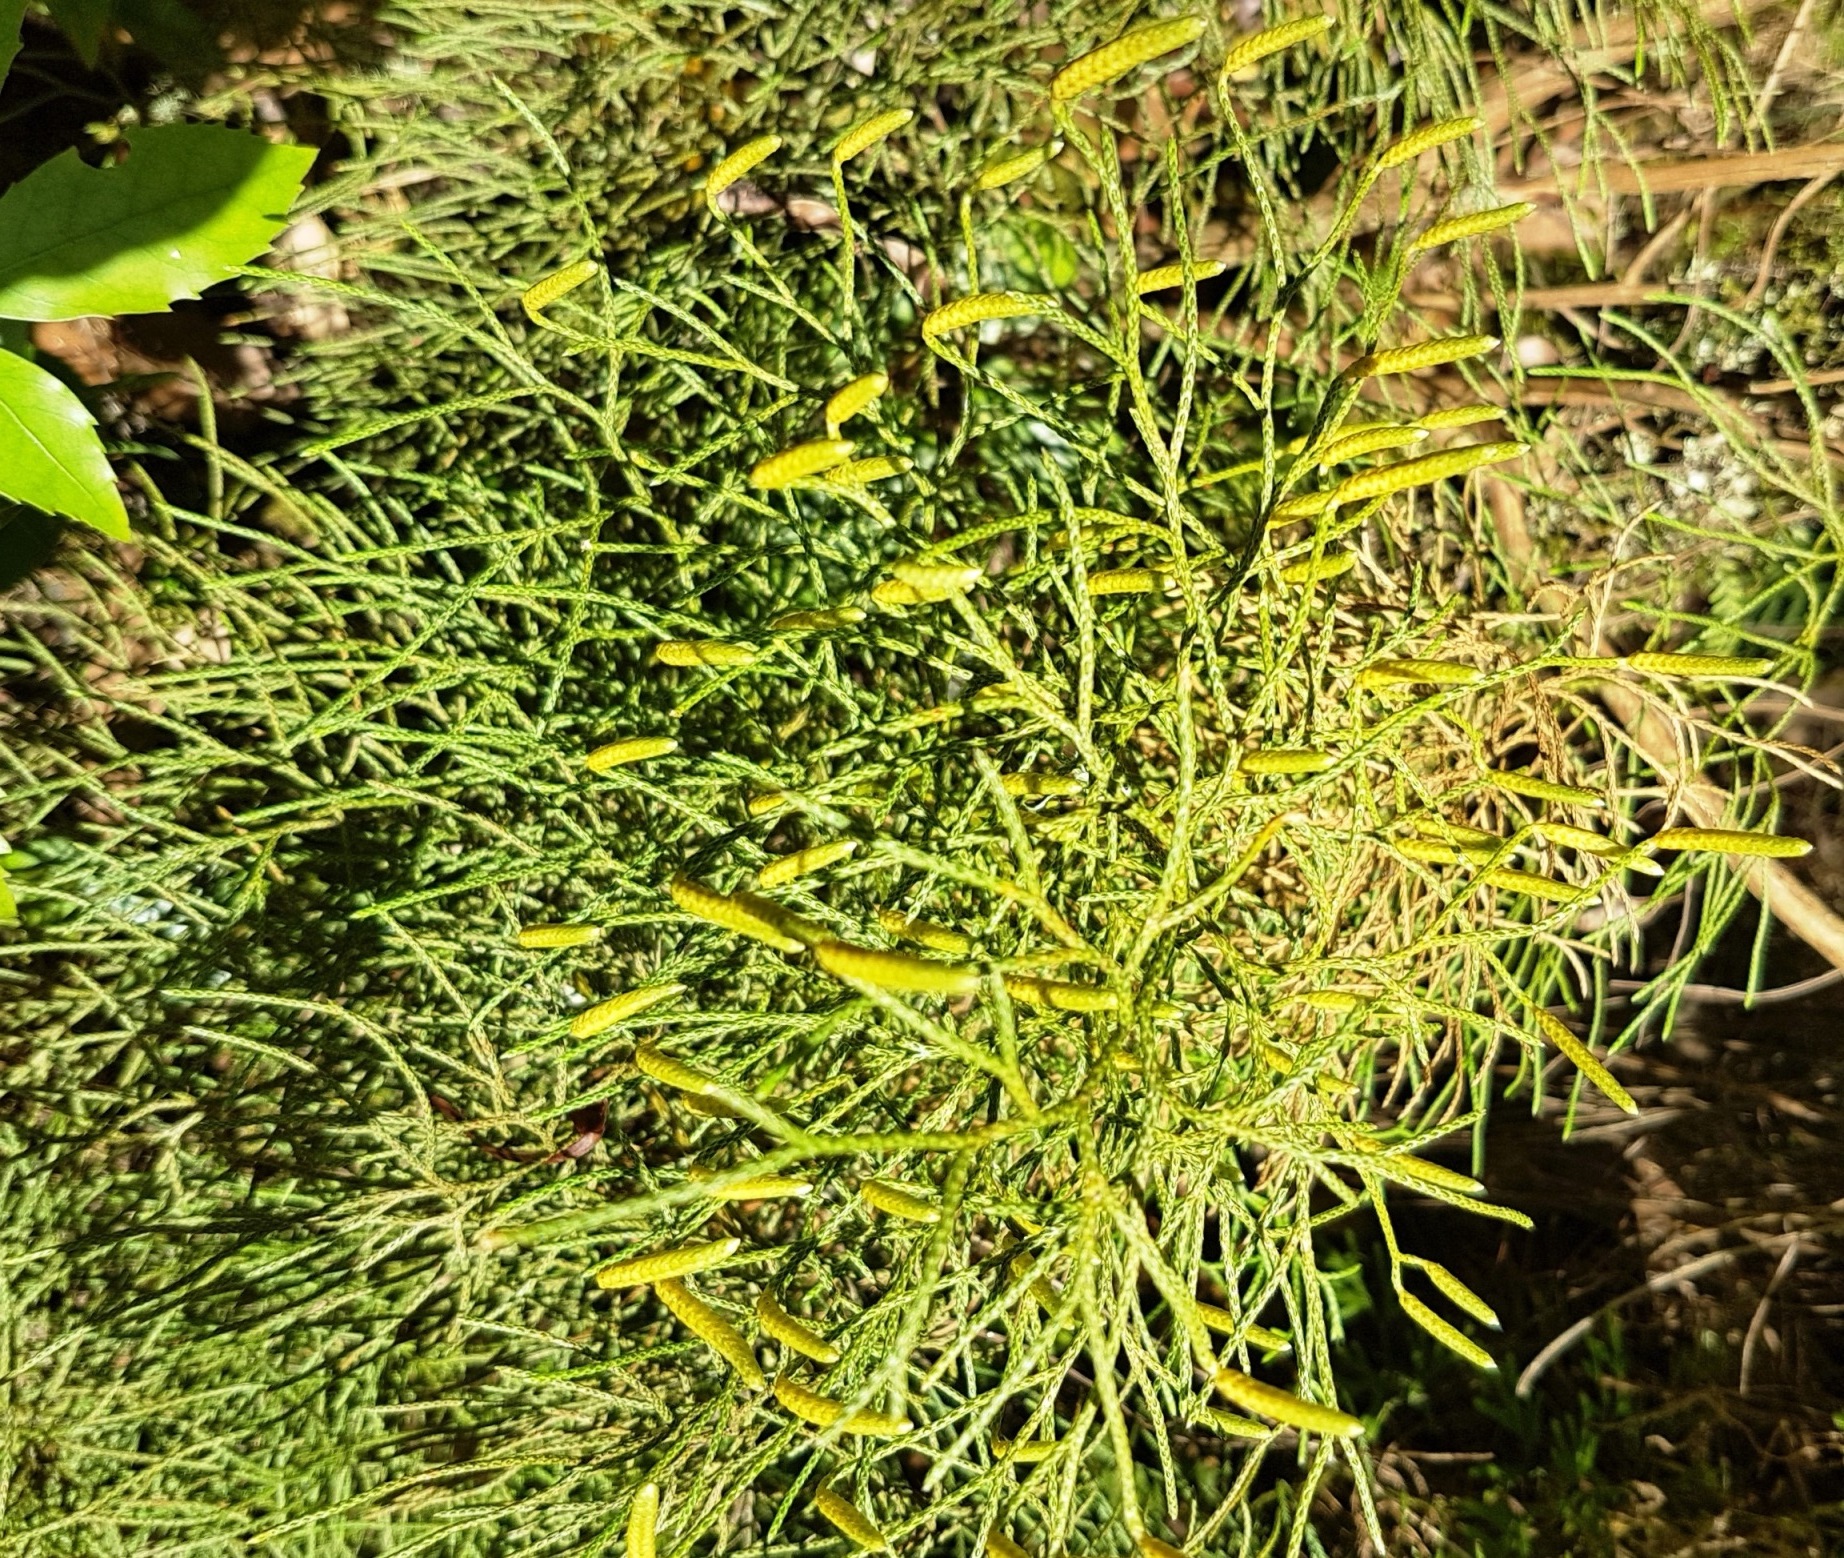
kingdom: Plantae
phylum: Tracheophyta
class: Lycopodiopsida
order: Lycopodiales
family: Lycopodiaceae
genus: Pseudolycopodium
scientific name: Pseudolycopodium densum
